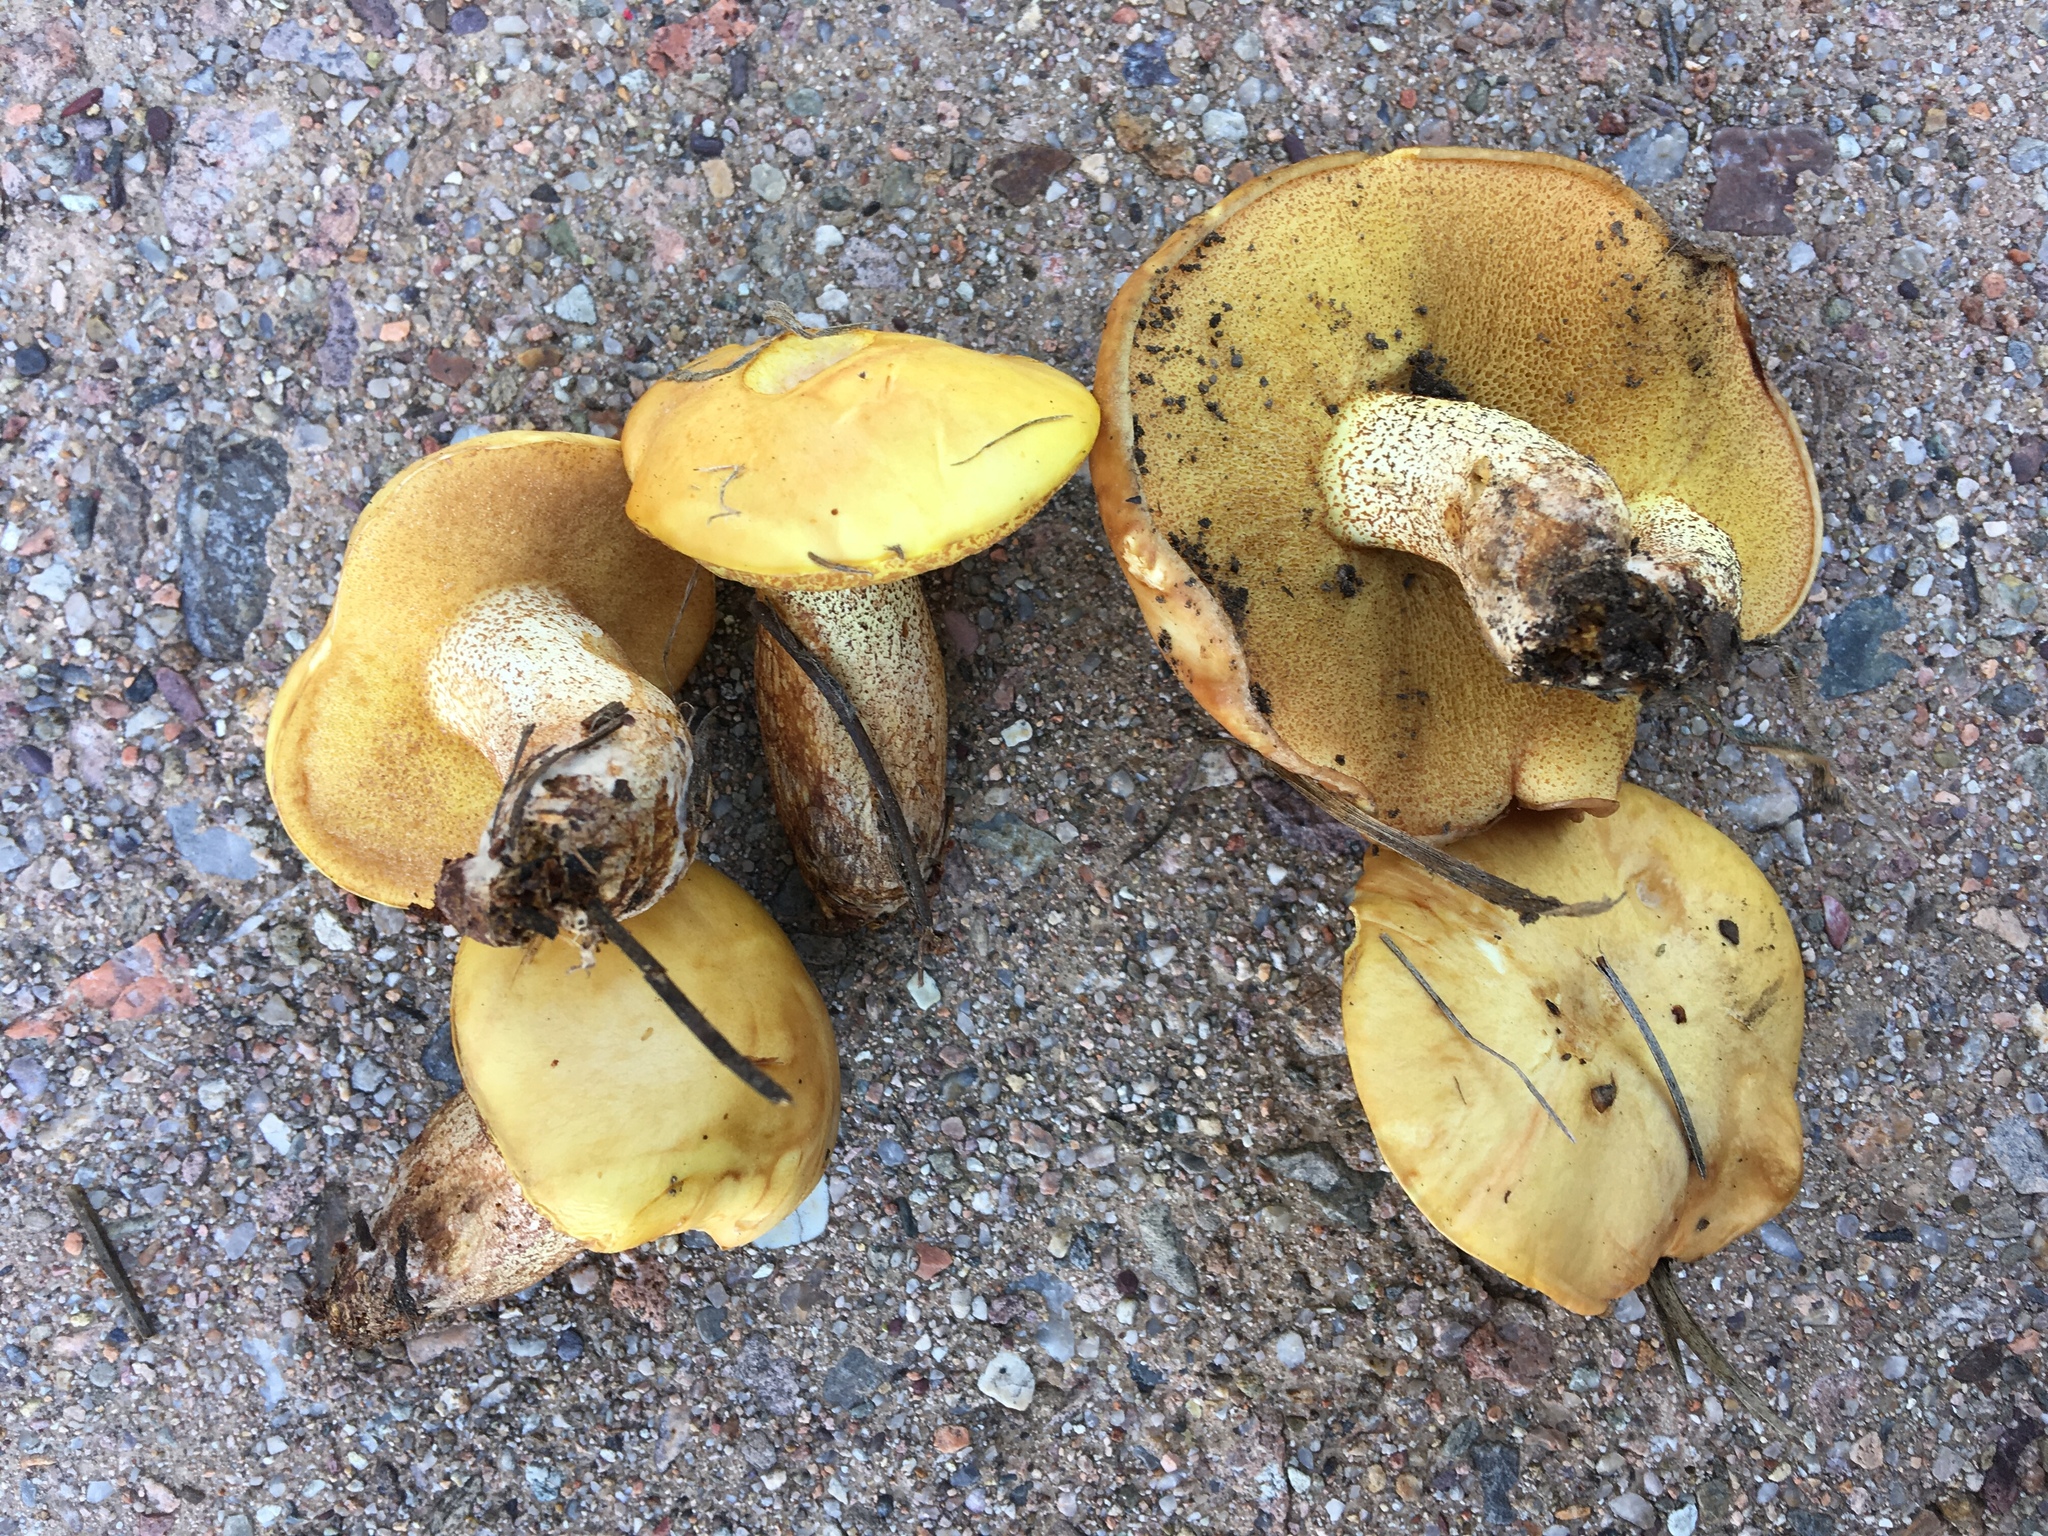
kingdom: Fungi
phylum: Basidiomycota
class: Agaricomycetes
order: Boletales
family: Suillaceae
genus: Suillus
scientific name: Suillus kaibabensis
